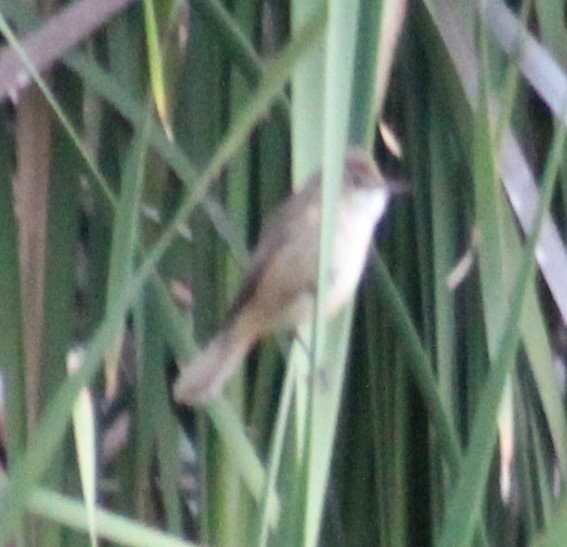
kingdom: Animalia
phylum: Chordata
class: Aves
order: Passeriformes
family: Acrocephalidae
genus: Acrocephalus
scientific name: Acrocephalus australis
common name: Australian reed warbler
